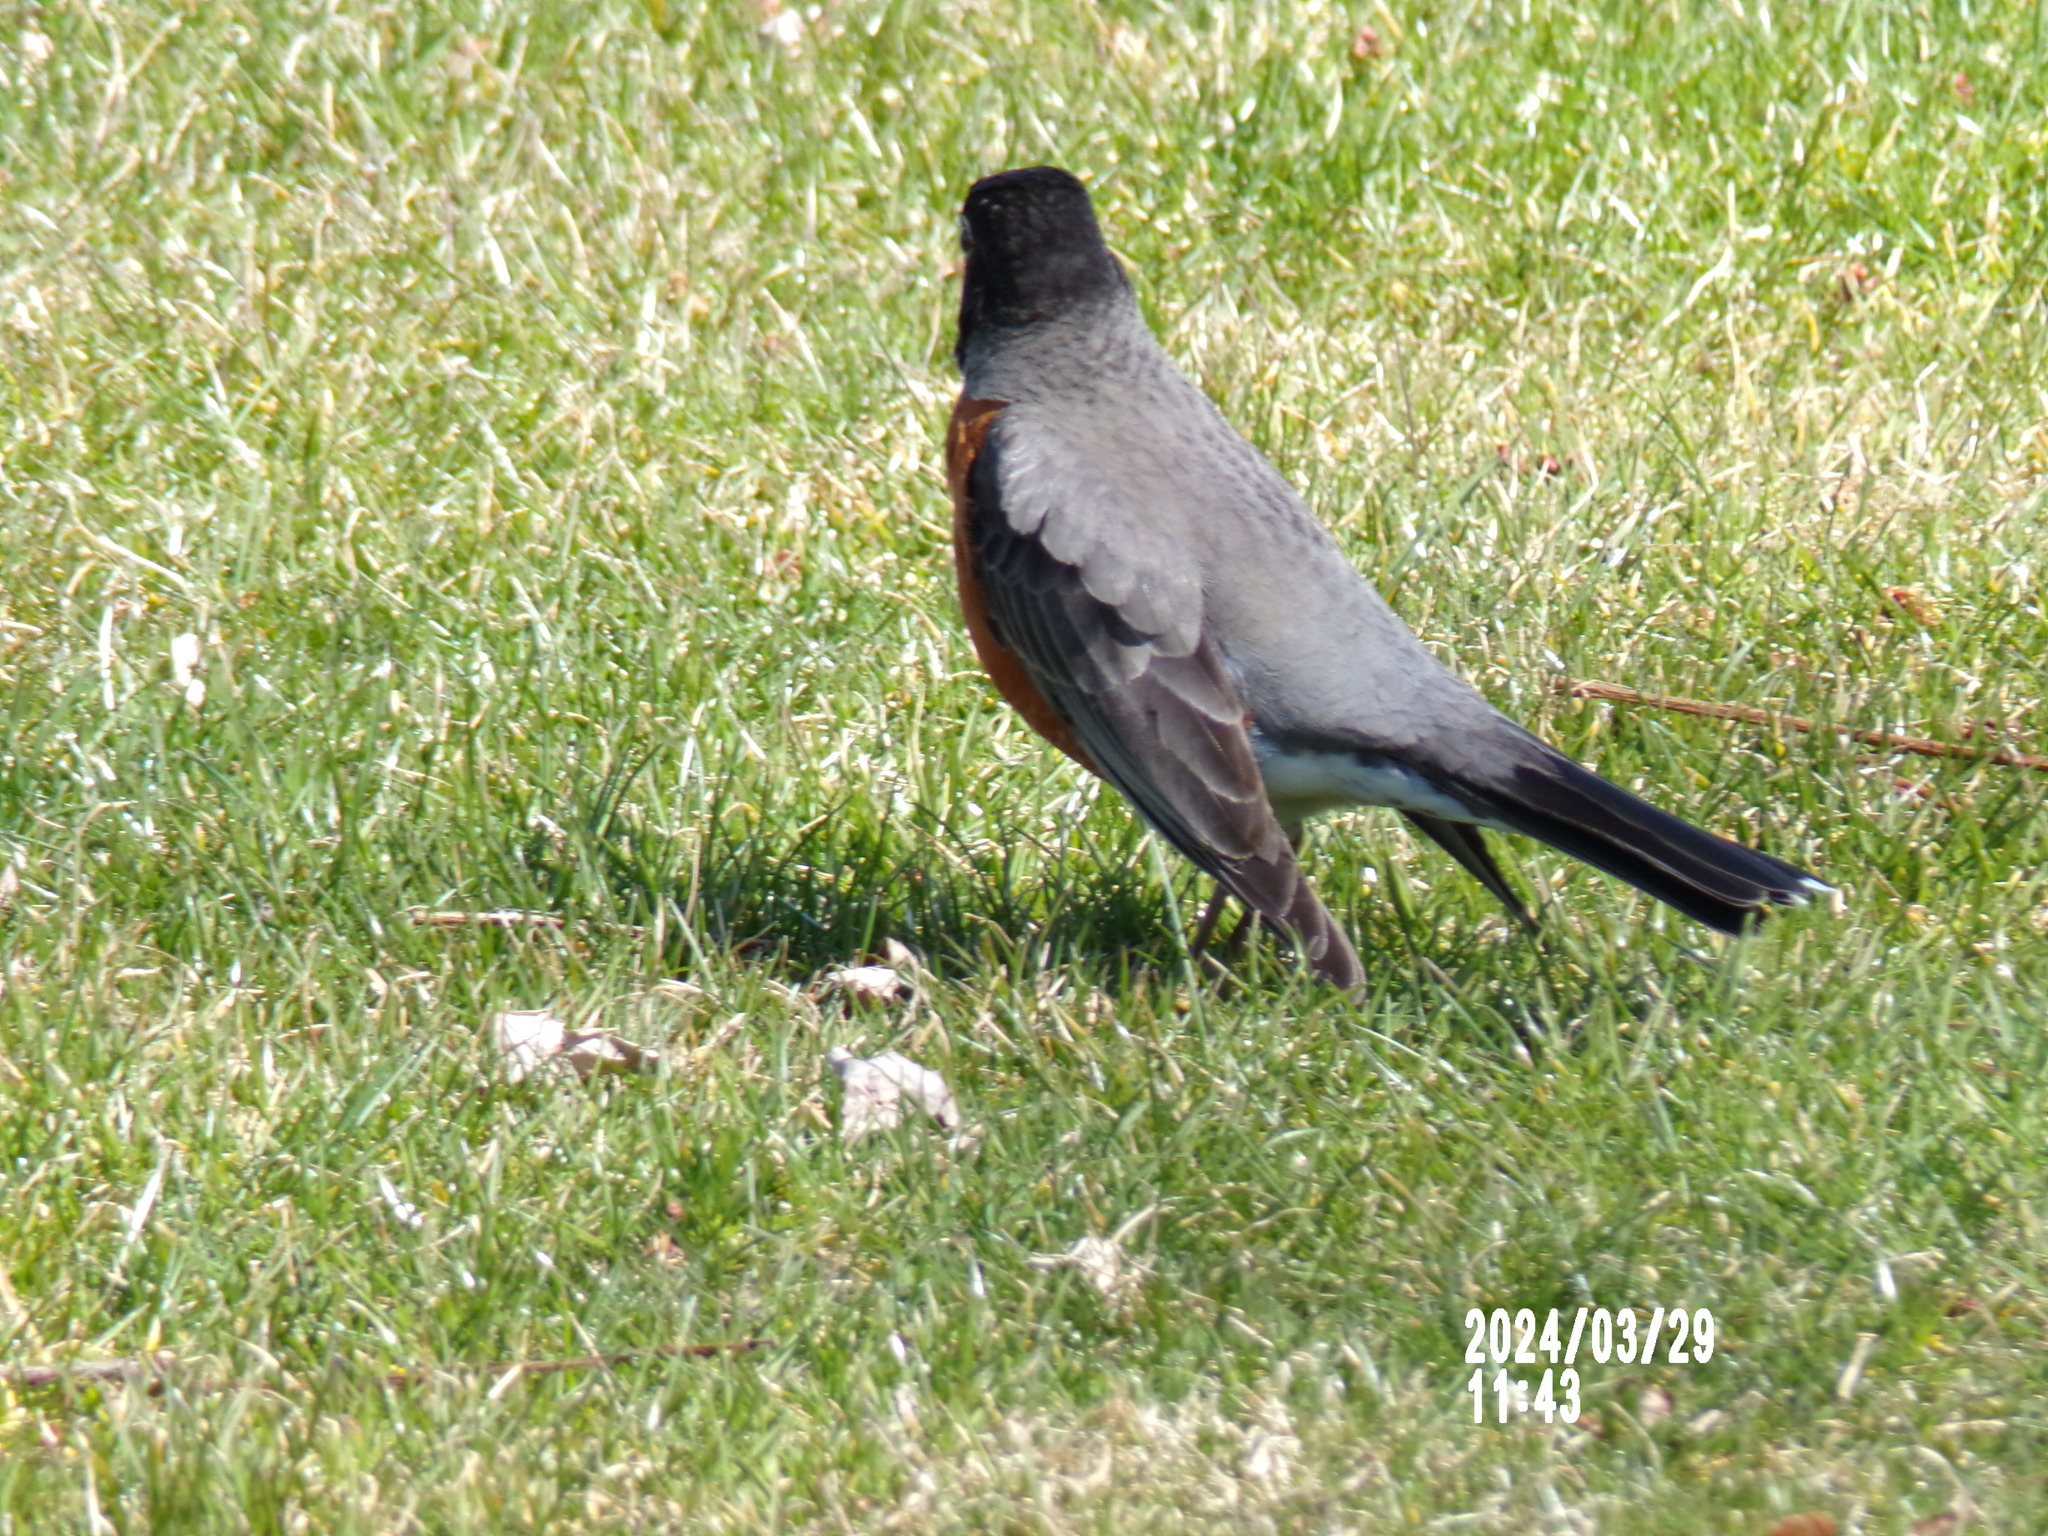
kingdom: Animalia
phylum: Chordata
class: Aves
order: Passeriformes
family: Turdidae
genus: Turdus
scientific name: Turdus migratorius
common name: American robin
